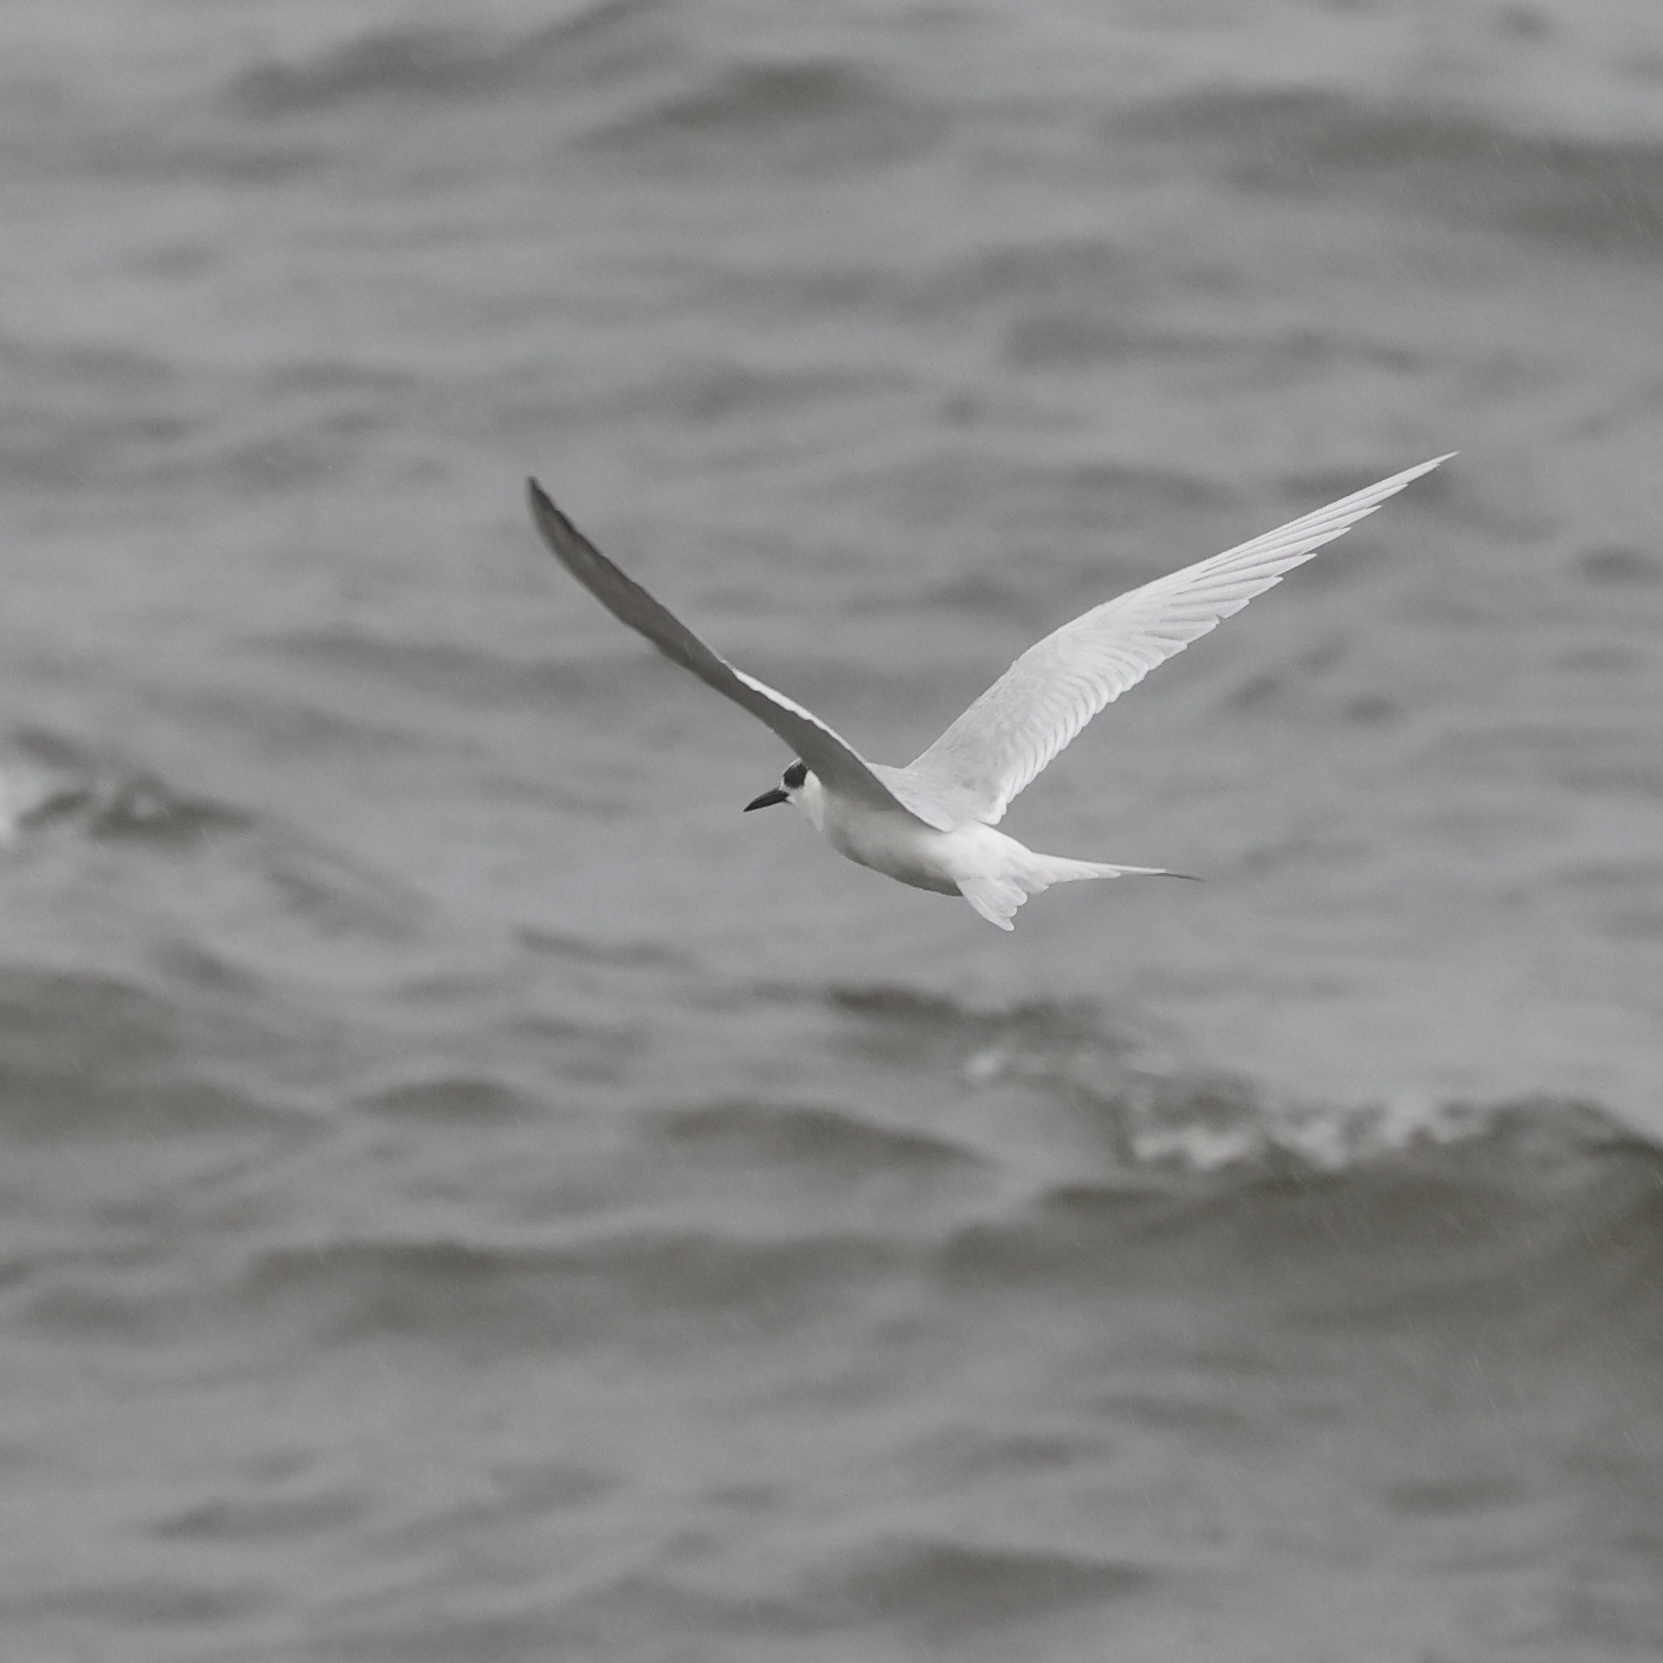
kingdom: Animalia
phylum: Chordata
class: Aves
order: Charadriiformes
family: Laridae
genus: Sterna
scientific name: Sterna forsteri
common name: Forster's tern
